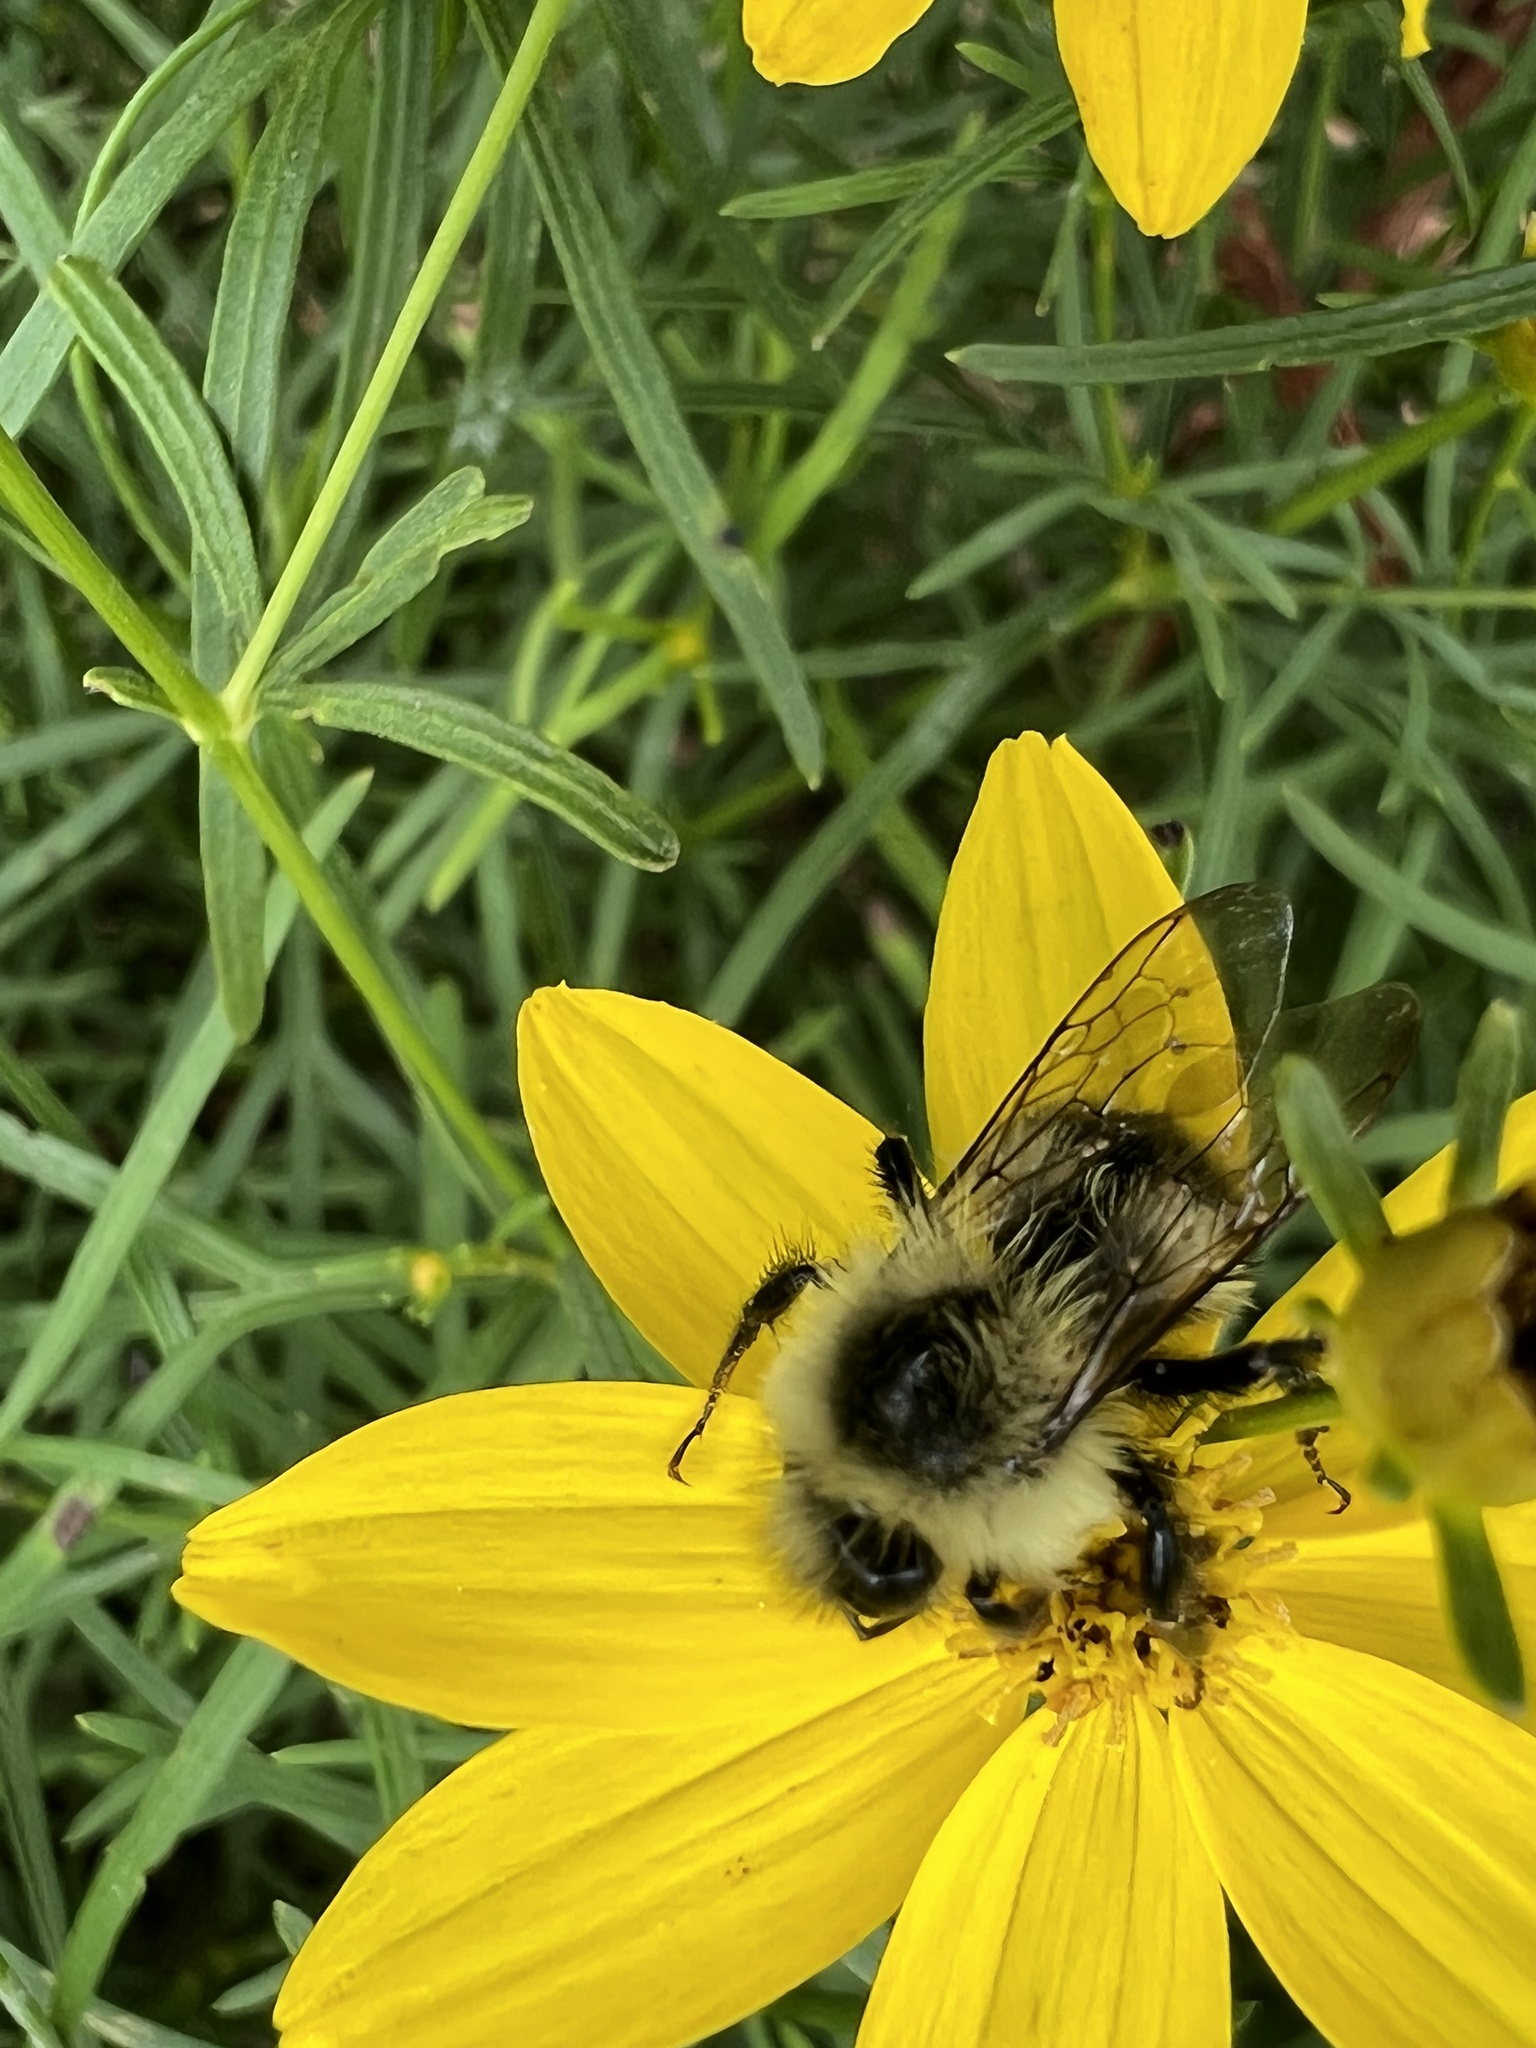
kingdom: Animalia
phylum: Arthropoda
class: Insecta
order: Hymenoptera
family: Apidae
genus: Bombus
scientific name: Bombus impatiens
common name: Common eastern bumble bee
